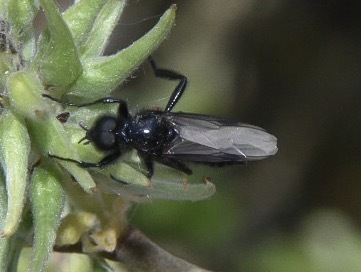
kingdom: Animalia
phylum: Arthropoda
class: Insecta
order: Diptera
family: Bibionidae
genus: Bibio
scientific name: Bibio marci
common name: St marks fly
